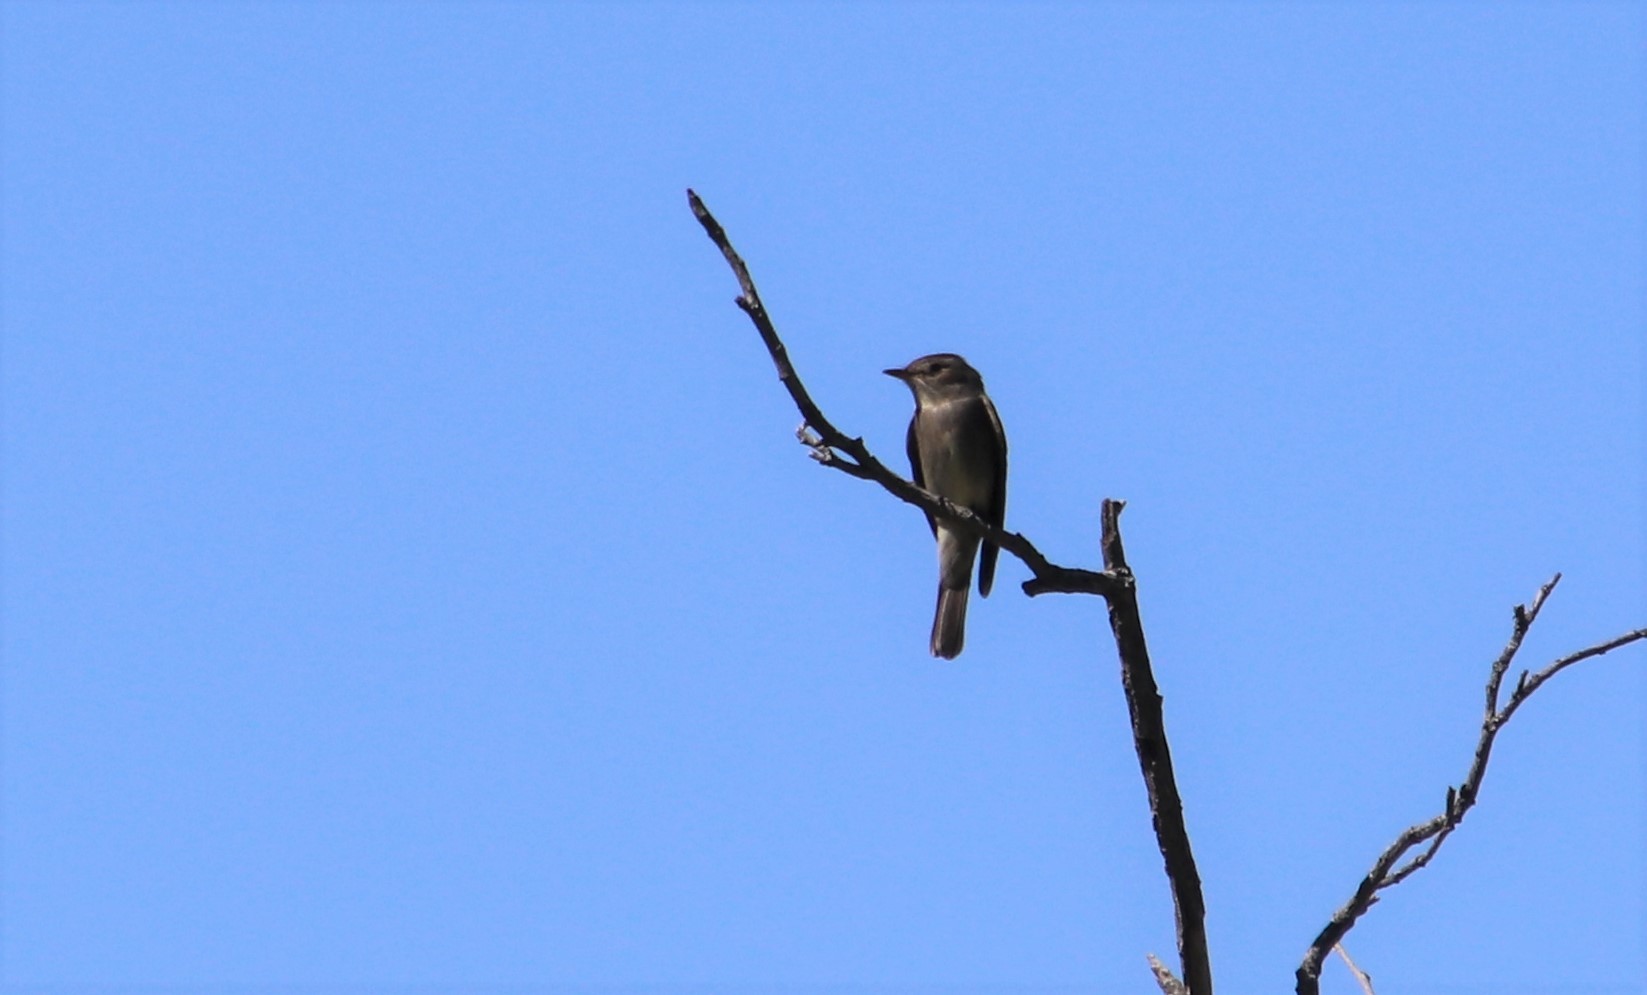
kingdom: Animalia
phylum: Chordata
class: Aves
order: Passeriformes
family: Tyrannidae
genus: Contopus
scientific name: Contopus sordidulus
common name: Western wood-pewee
